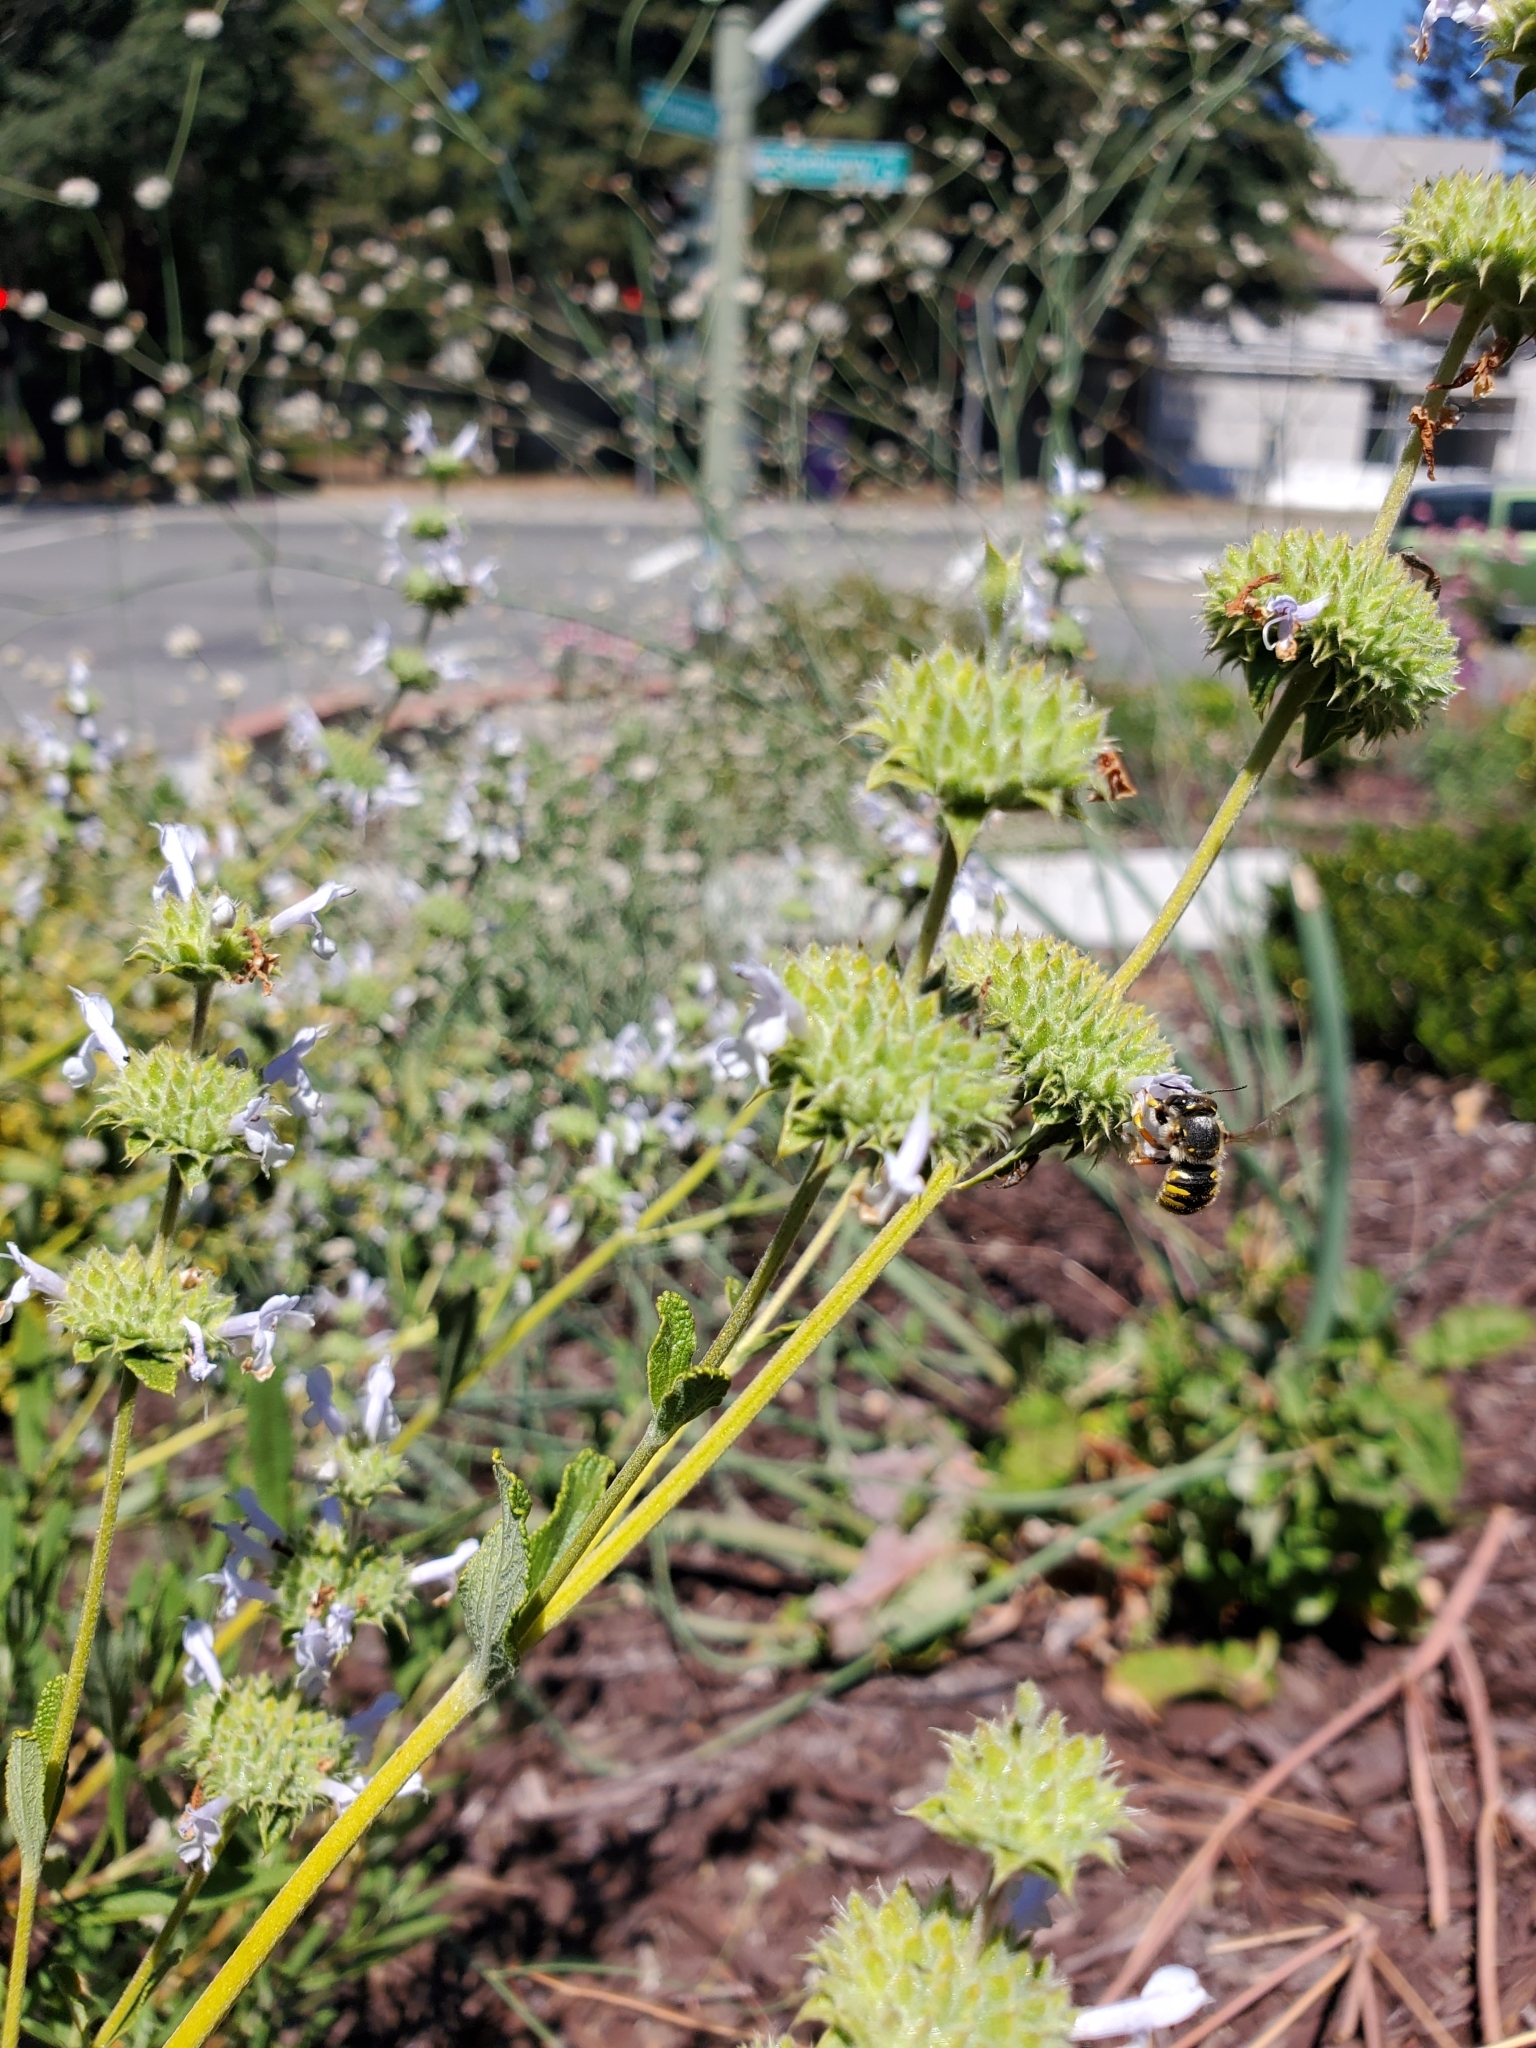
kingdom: Animalia
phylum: Arthropoda
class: Insecta
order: Hymenoptera
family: Megachilidae
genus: Anthidium
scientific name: Anthidium manicatum
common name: Wool carder bee
